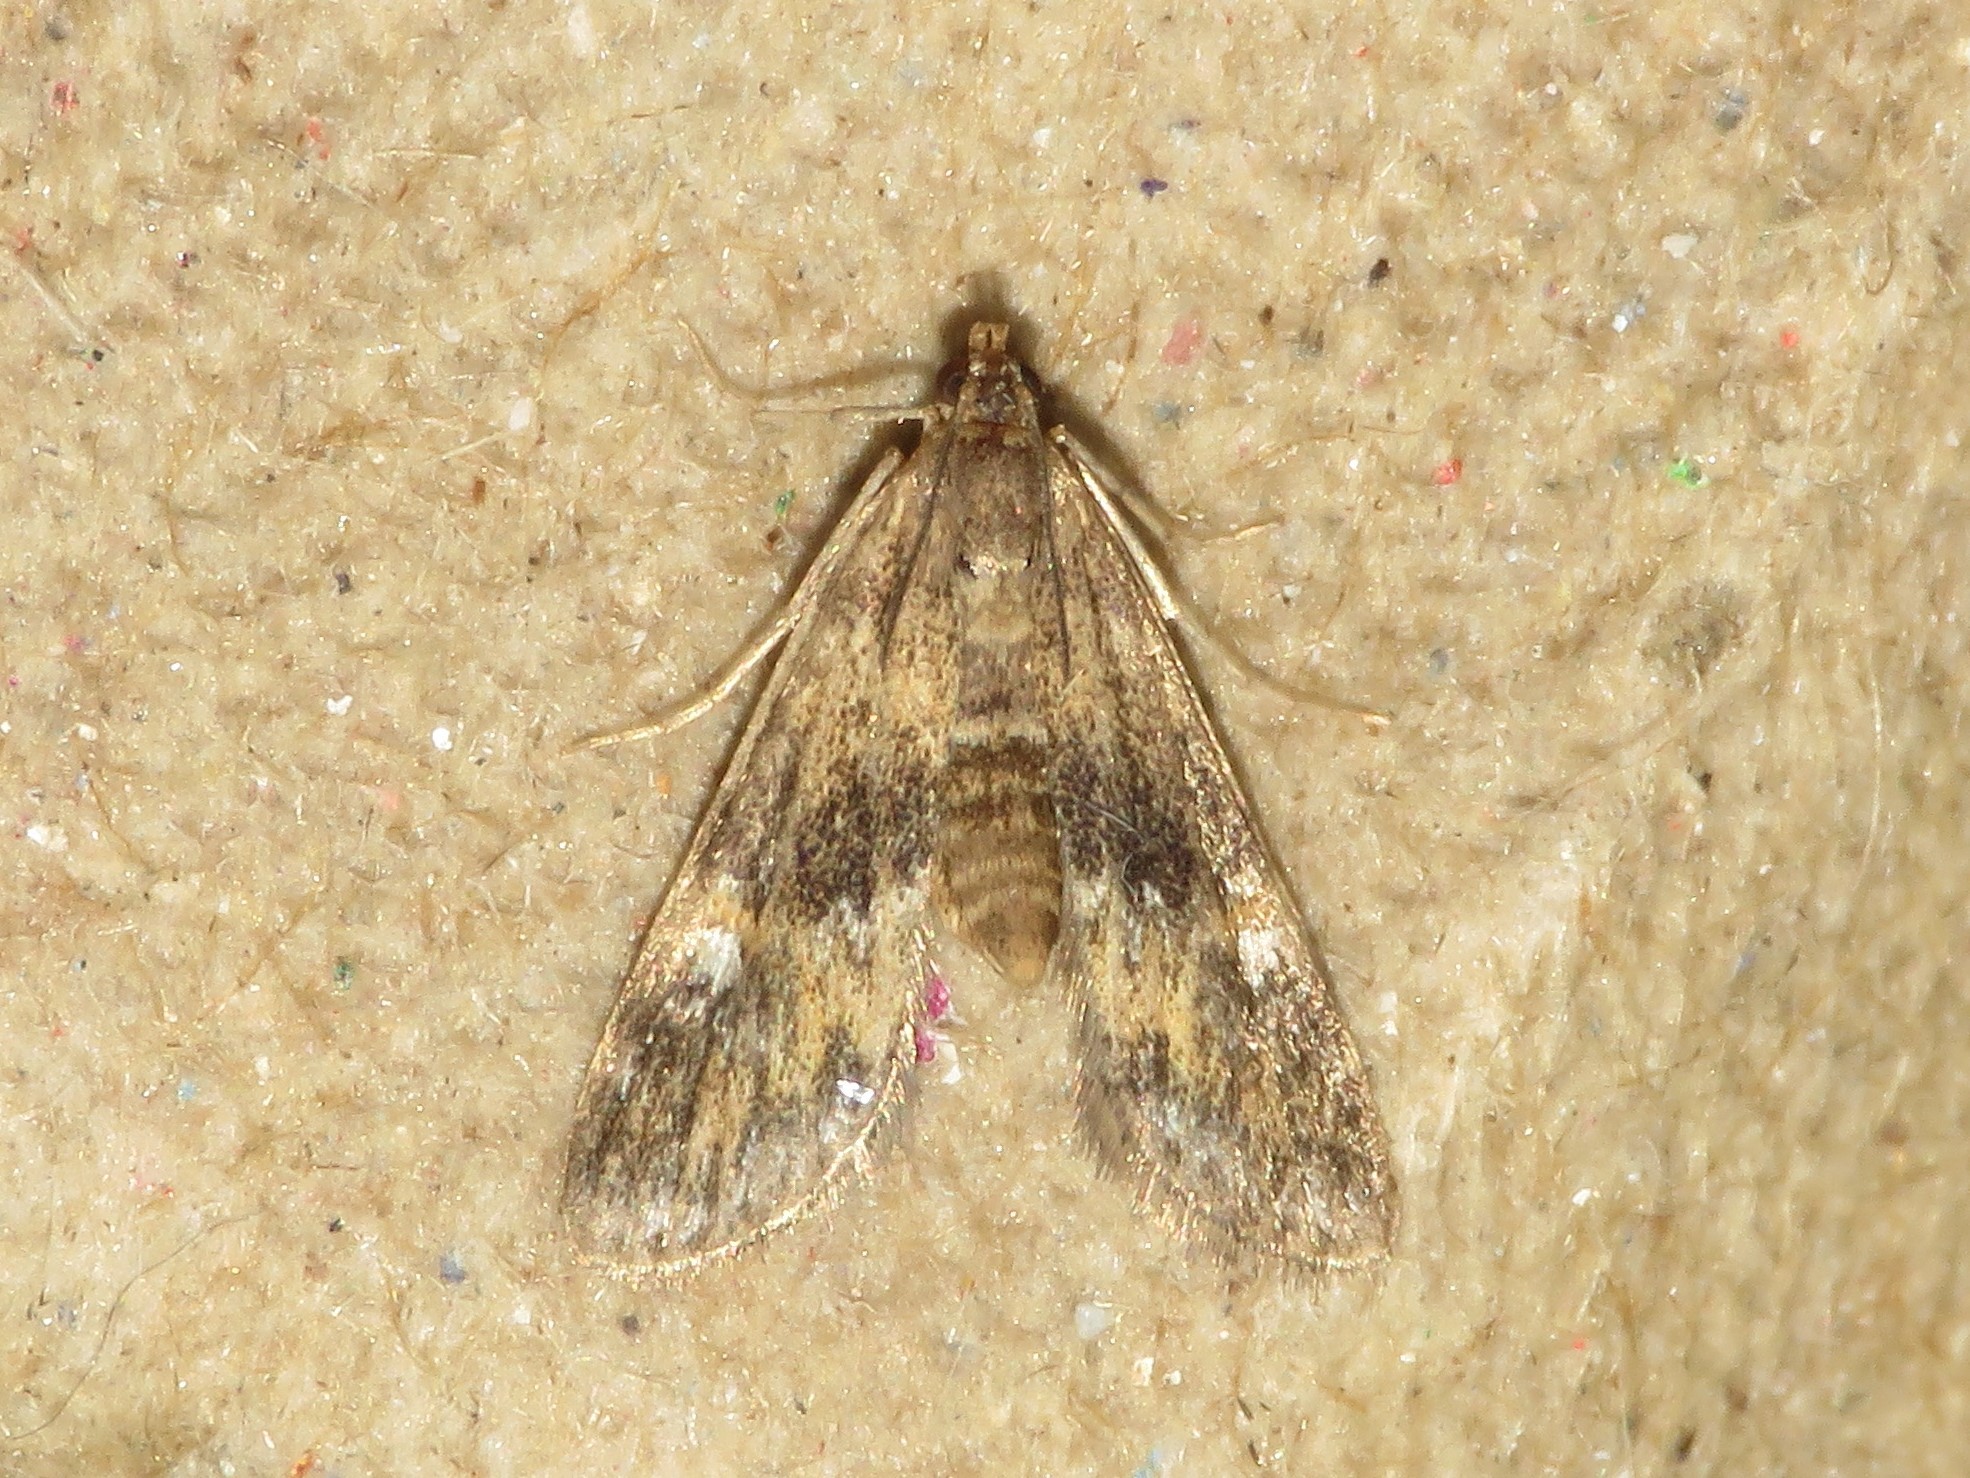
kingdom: Animalia
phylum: Arthropoda
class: Insecta
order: Lepidoptera
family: Crambidae
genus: Elophila
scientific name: Elophila obliteralis
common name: Waterlily leafcutter moth
